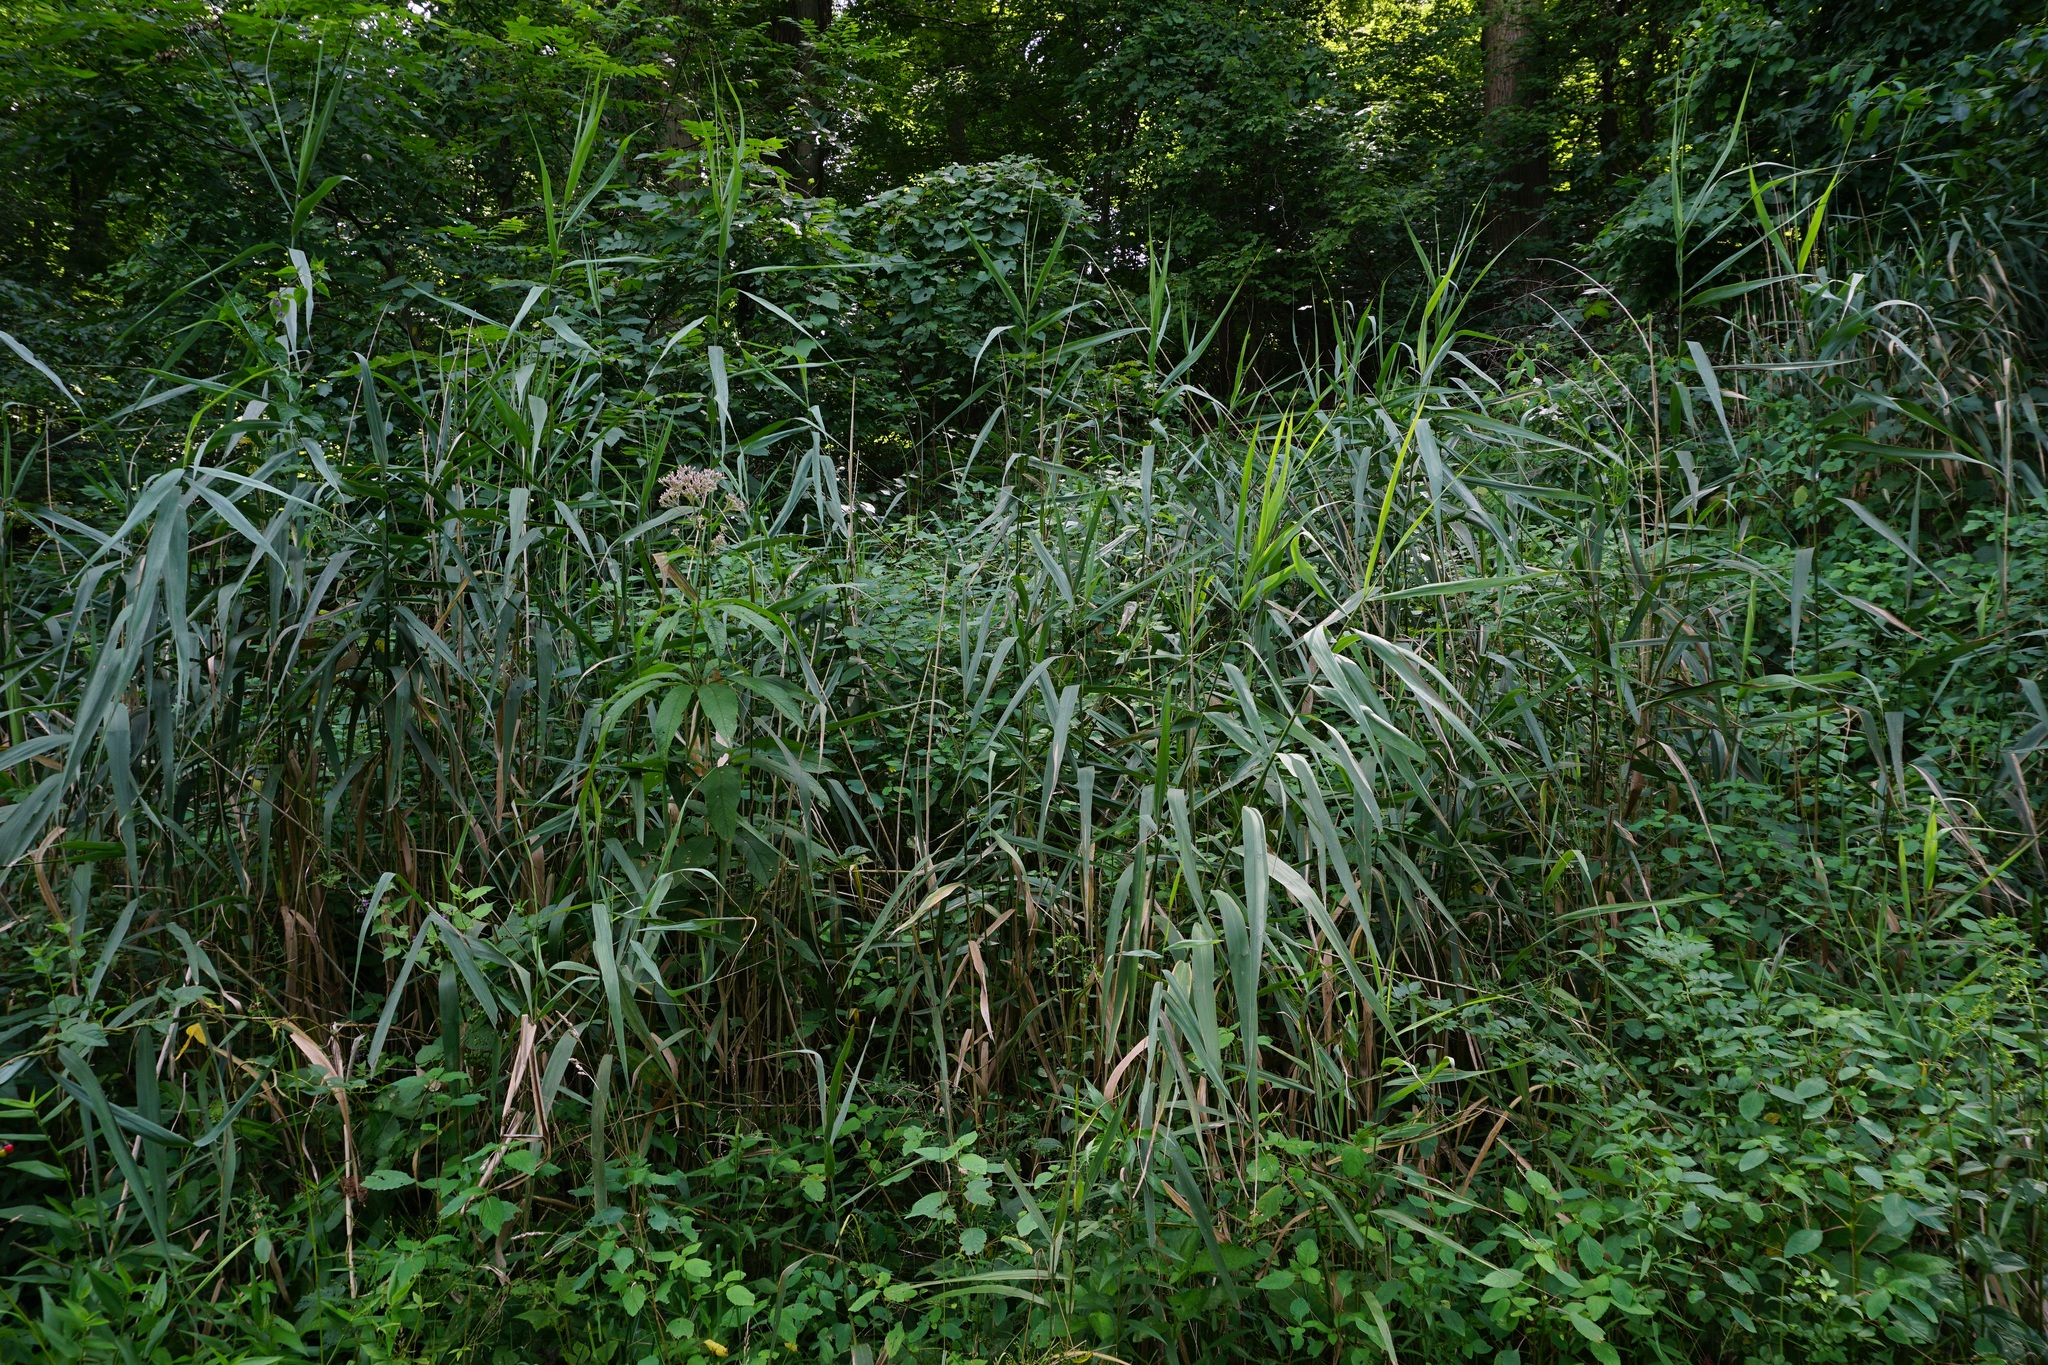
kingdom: Plantae
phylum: Tracheophyta
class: Liliopsida
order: Poales
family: Poaceae
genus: Phragmites
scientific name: Phragmites australis
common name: Common reed
